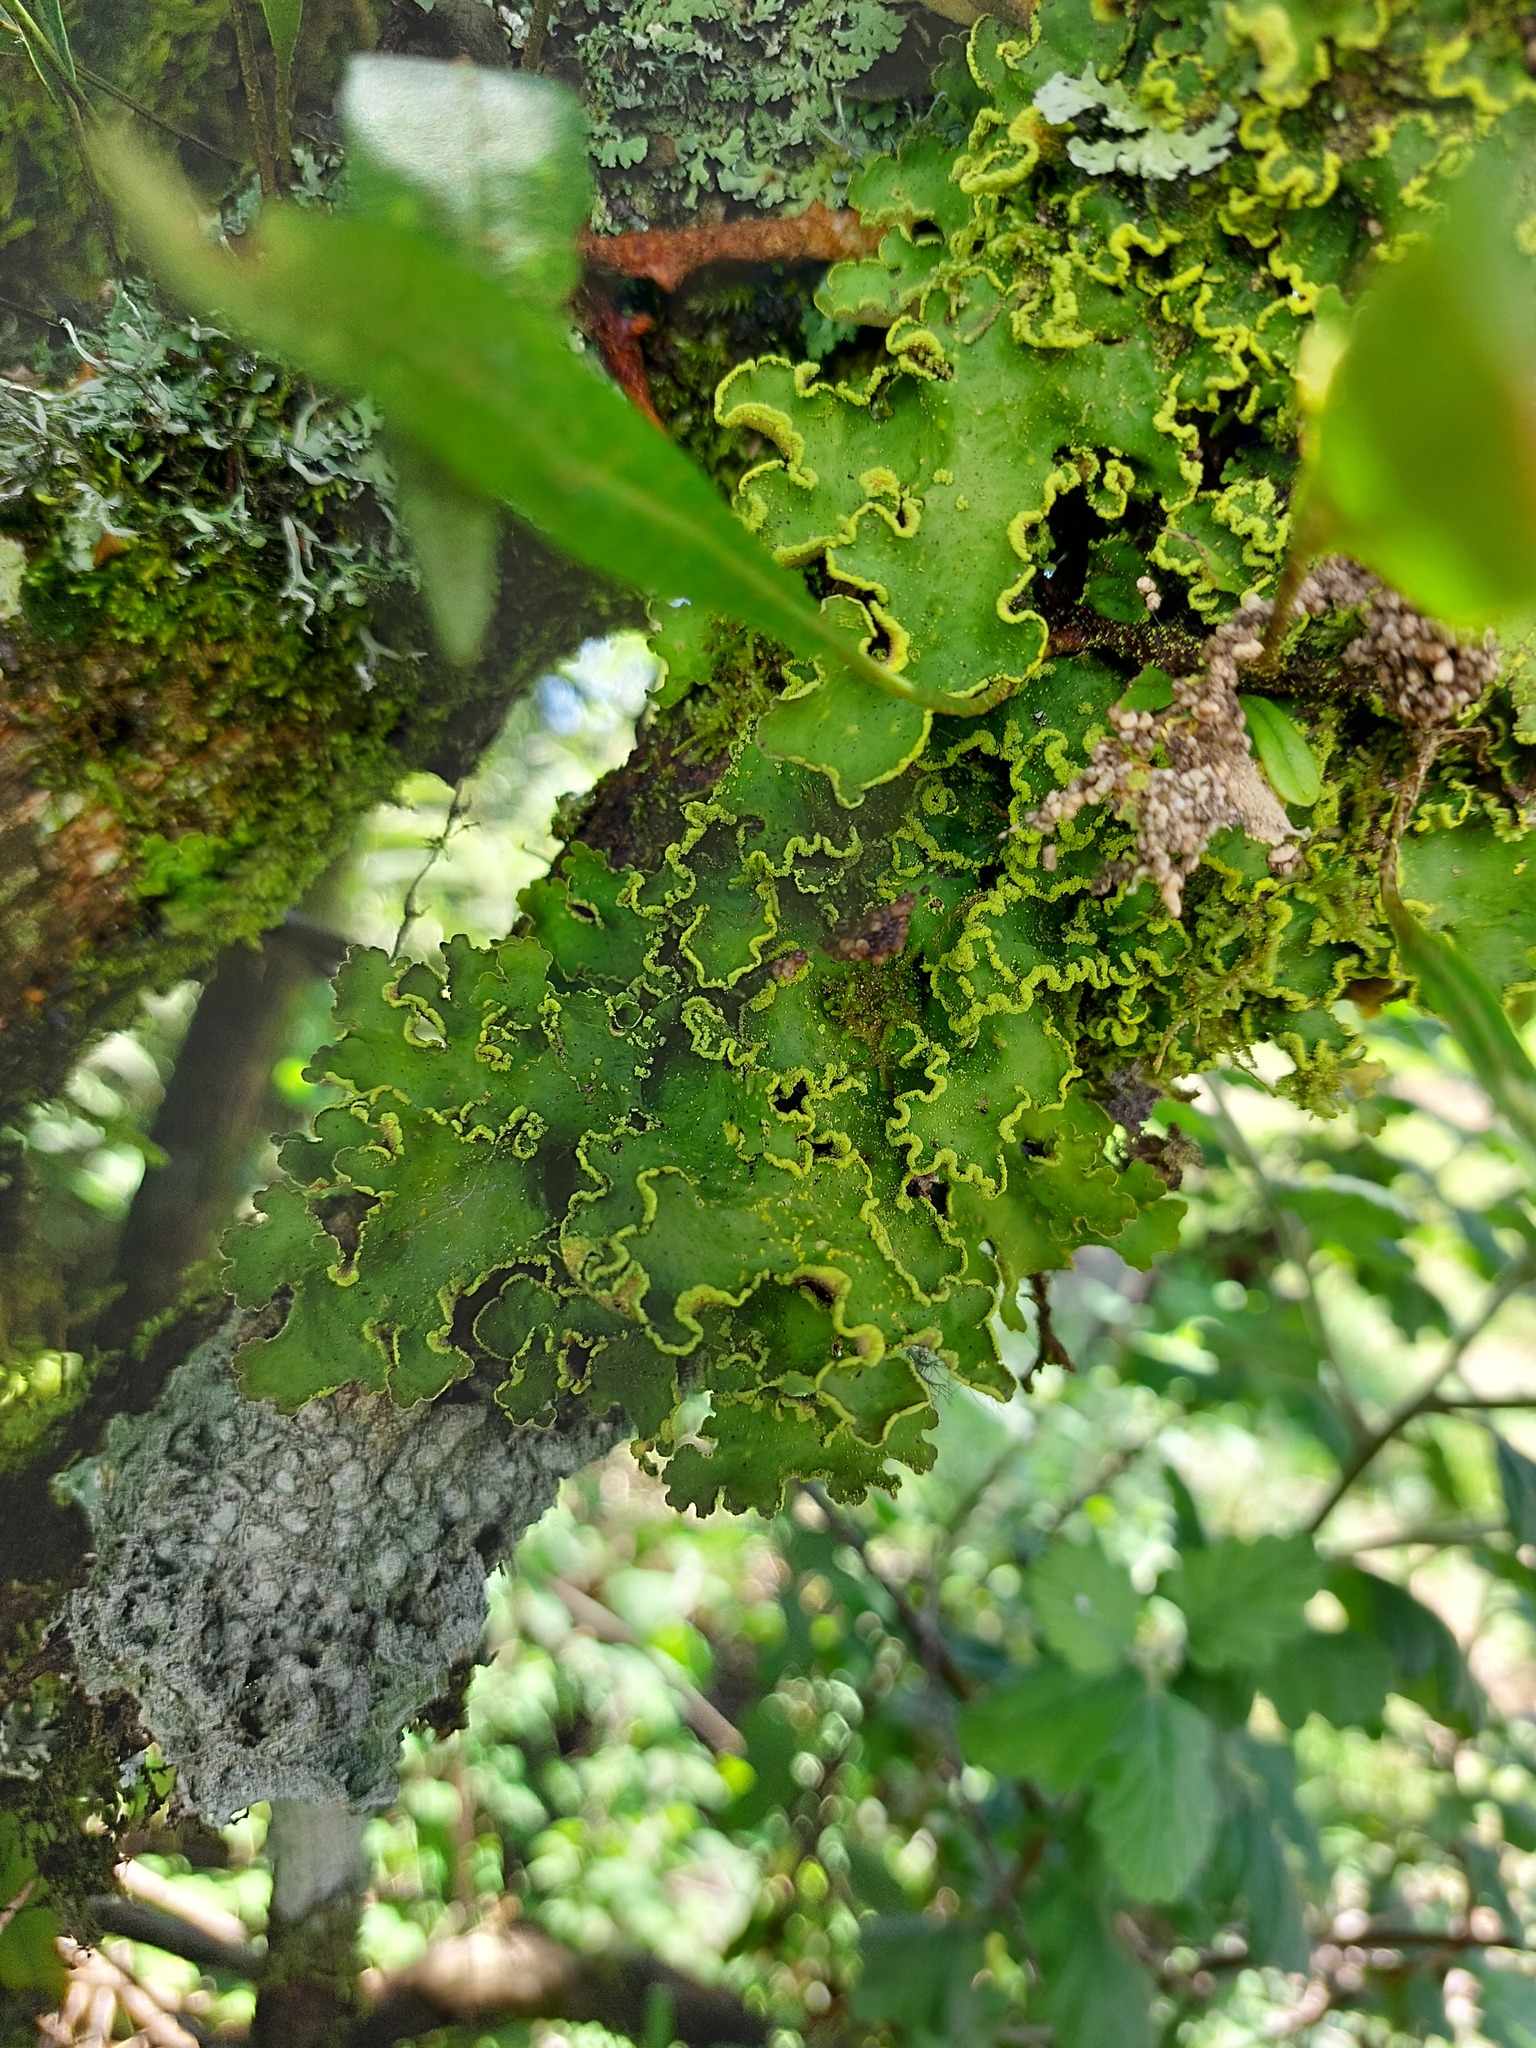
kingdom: Fungi
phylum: Ascomycota
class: Lecanoromycetes
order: Peltigerales
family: Lobariaceae
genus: Pseudocyphellaria
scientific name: Pseudocyphellaria aurata
